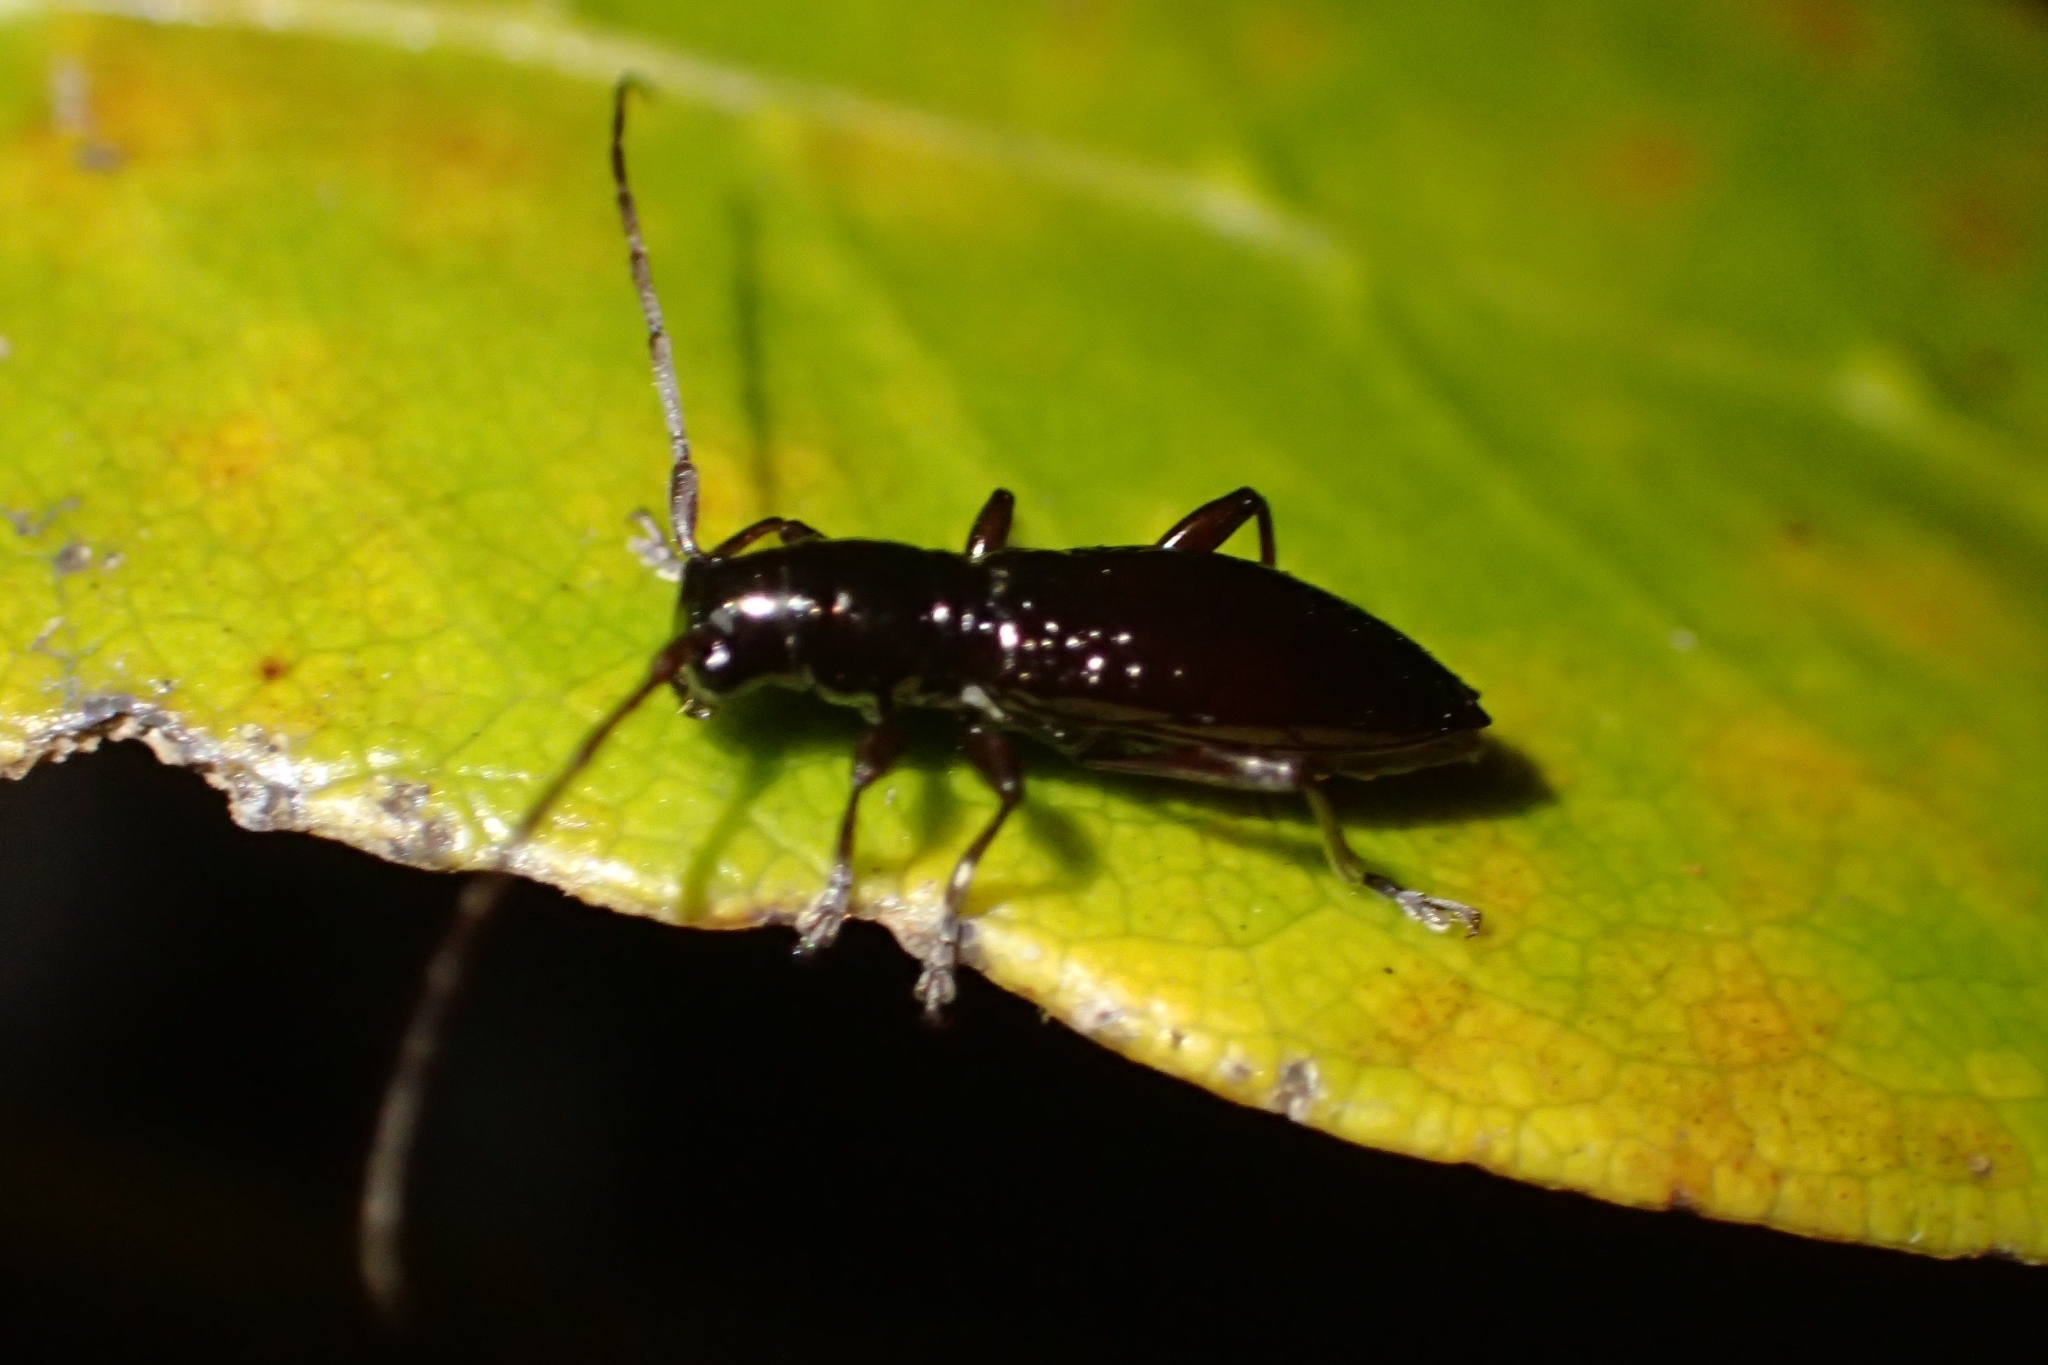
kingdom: Animalia
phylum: Arthropoda
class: Insecta
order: Coleoptera
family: Cerambycidae
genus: Xylotoles
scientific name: Xylotoles nudus
